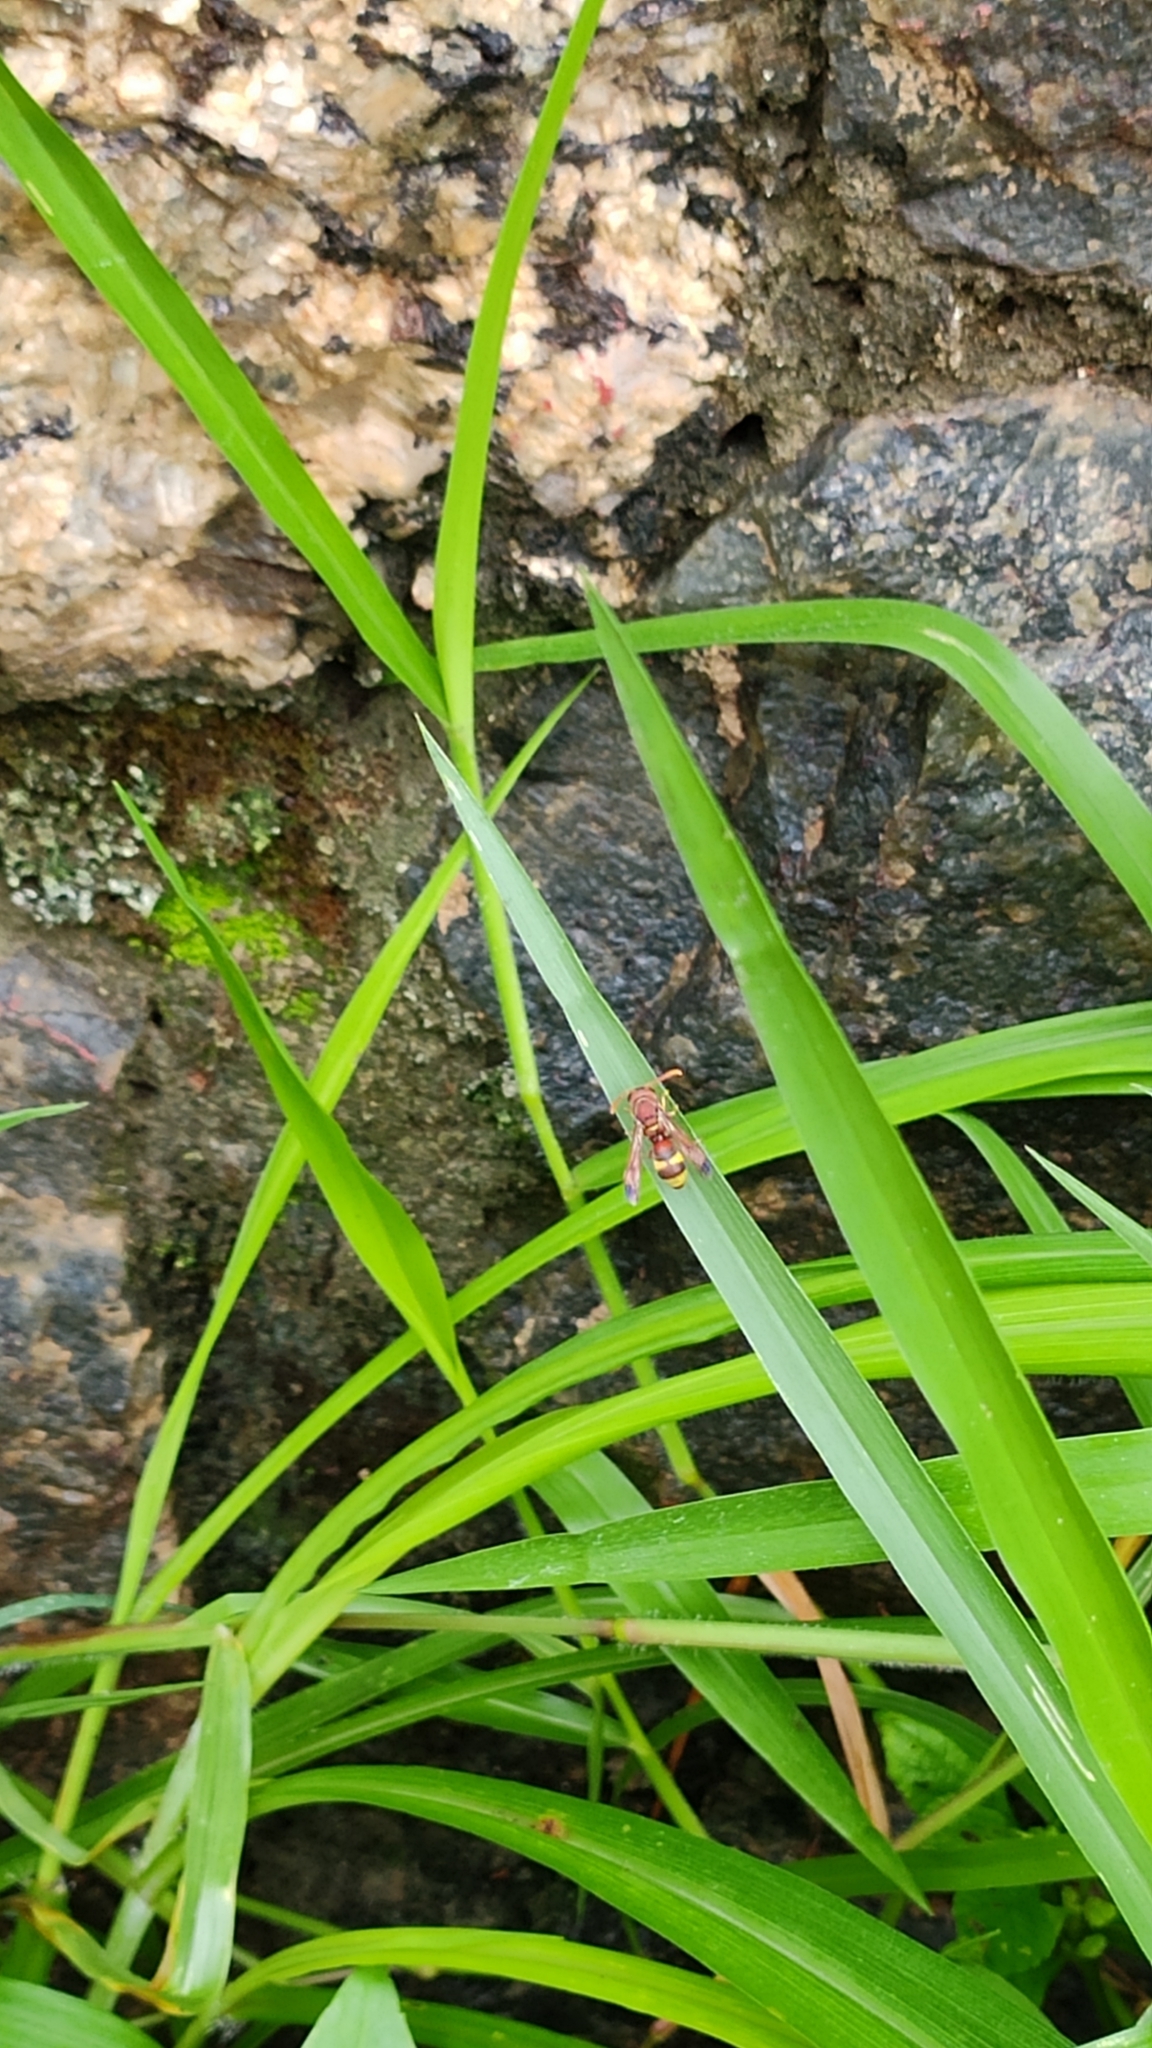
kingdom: Animalia
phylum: Arthropoda
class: Insecta
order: Hymenoptera
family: Eumenidae
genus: Polistes
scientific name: Polistes stigma
